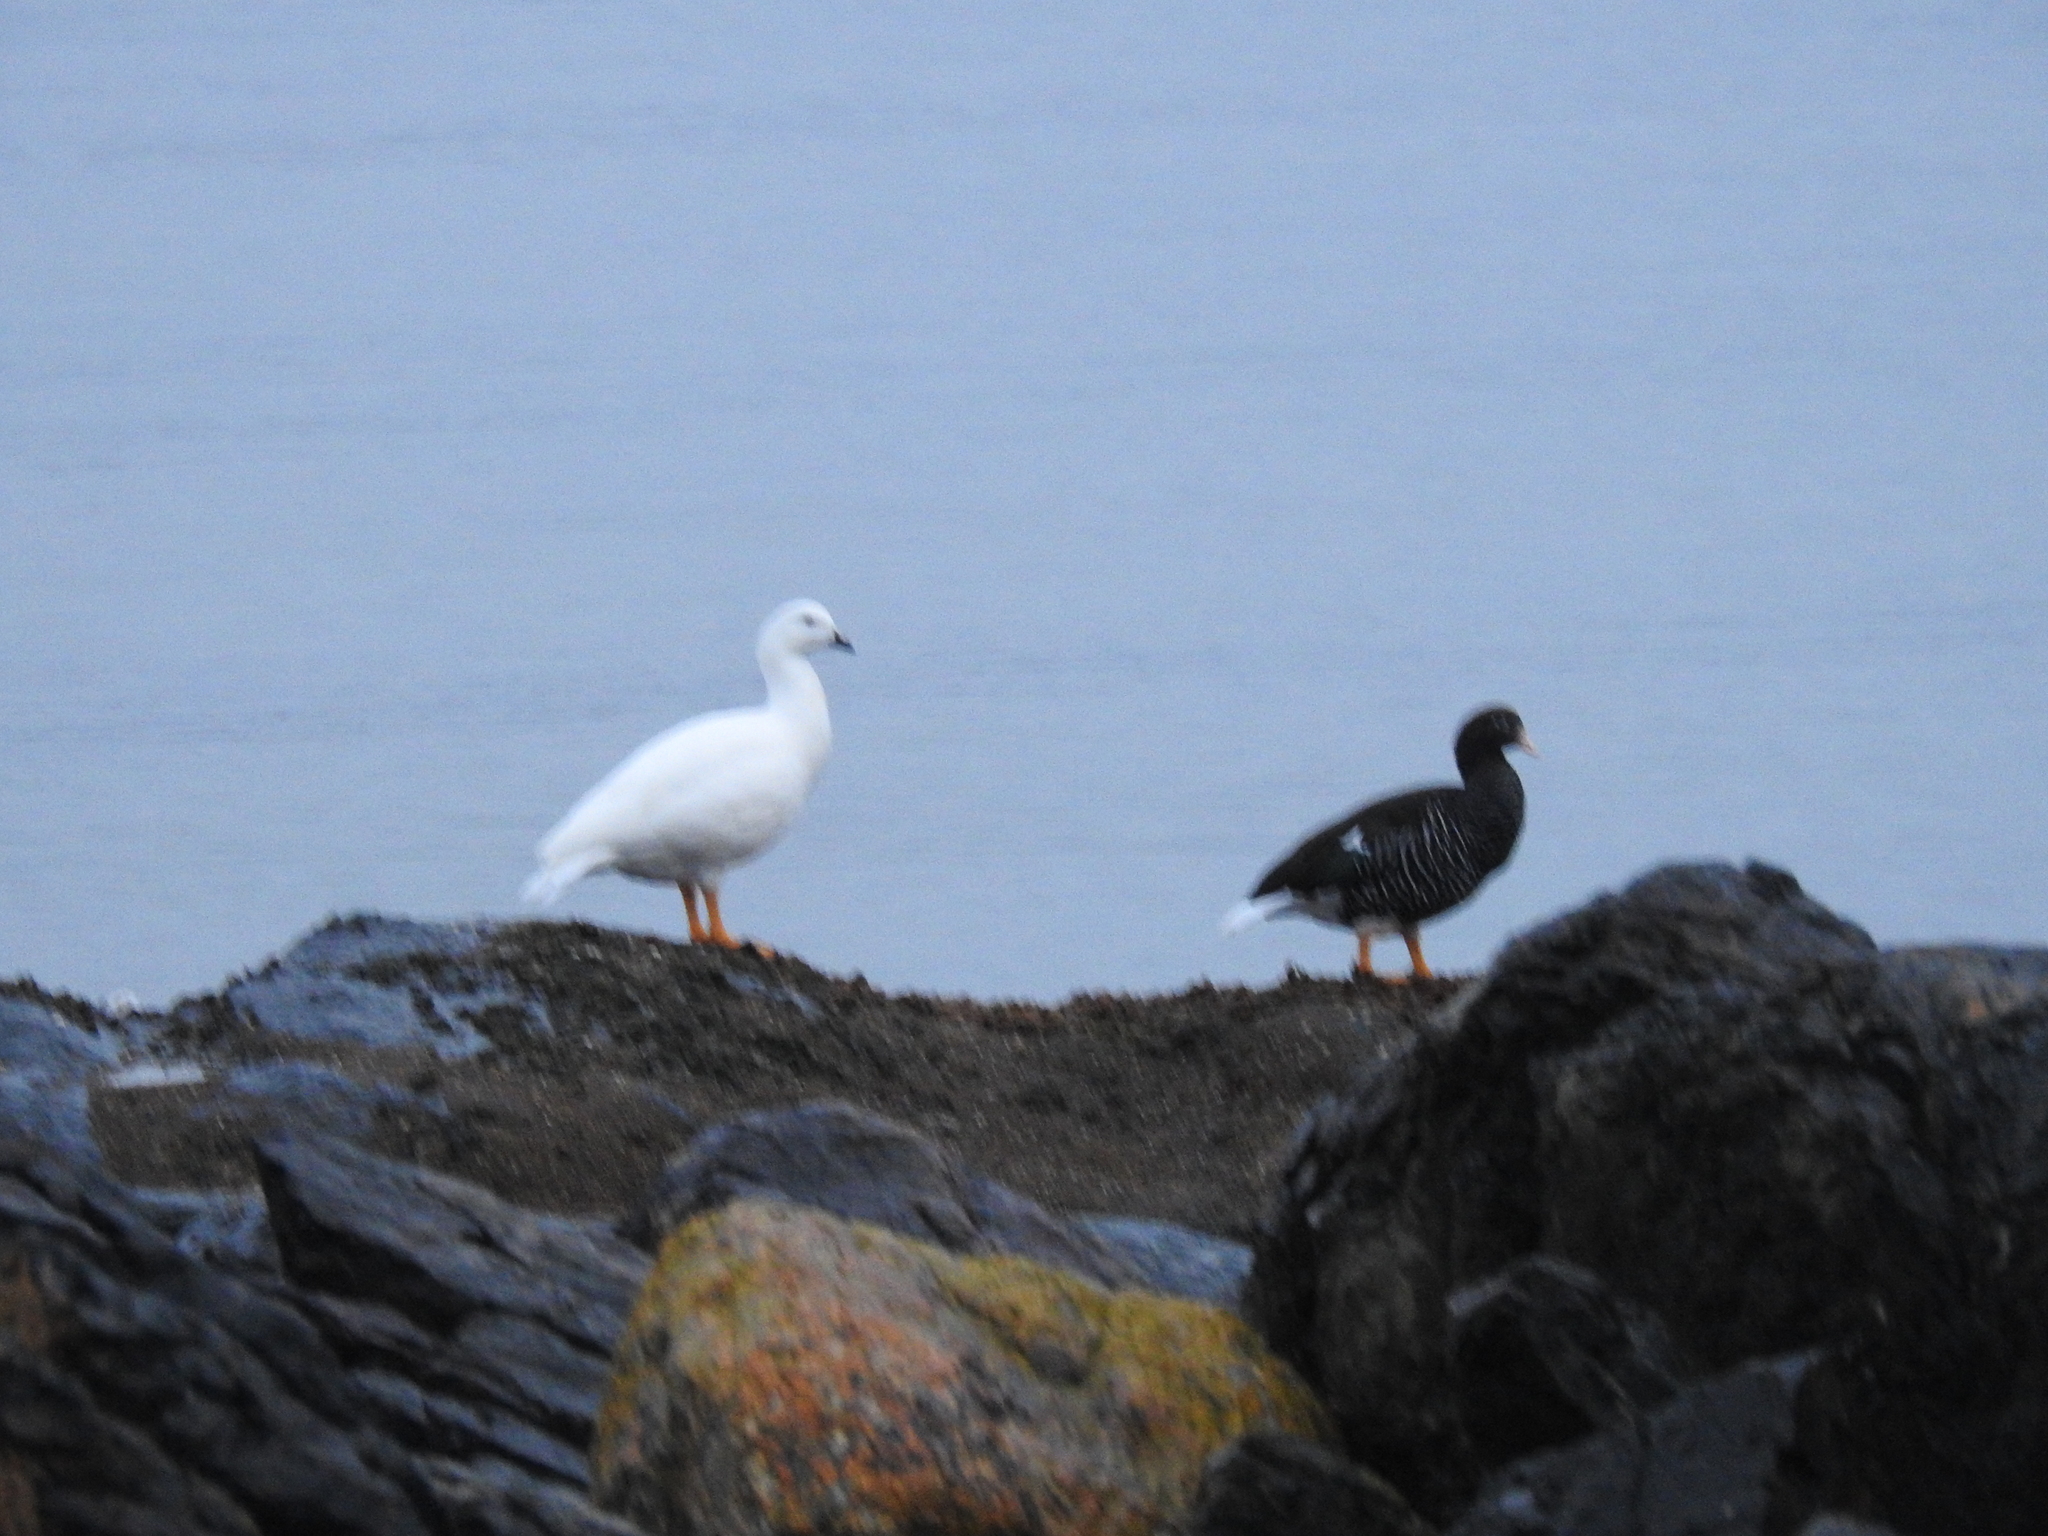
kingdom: Animalia
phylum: Chordata
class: Aves
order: Anseriformes
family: Anatidae
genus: Chloephaga
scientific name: Chloephaga hybrida
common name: Kelp goose
